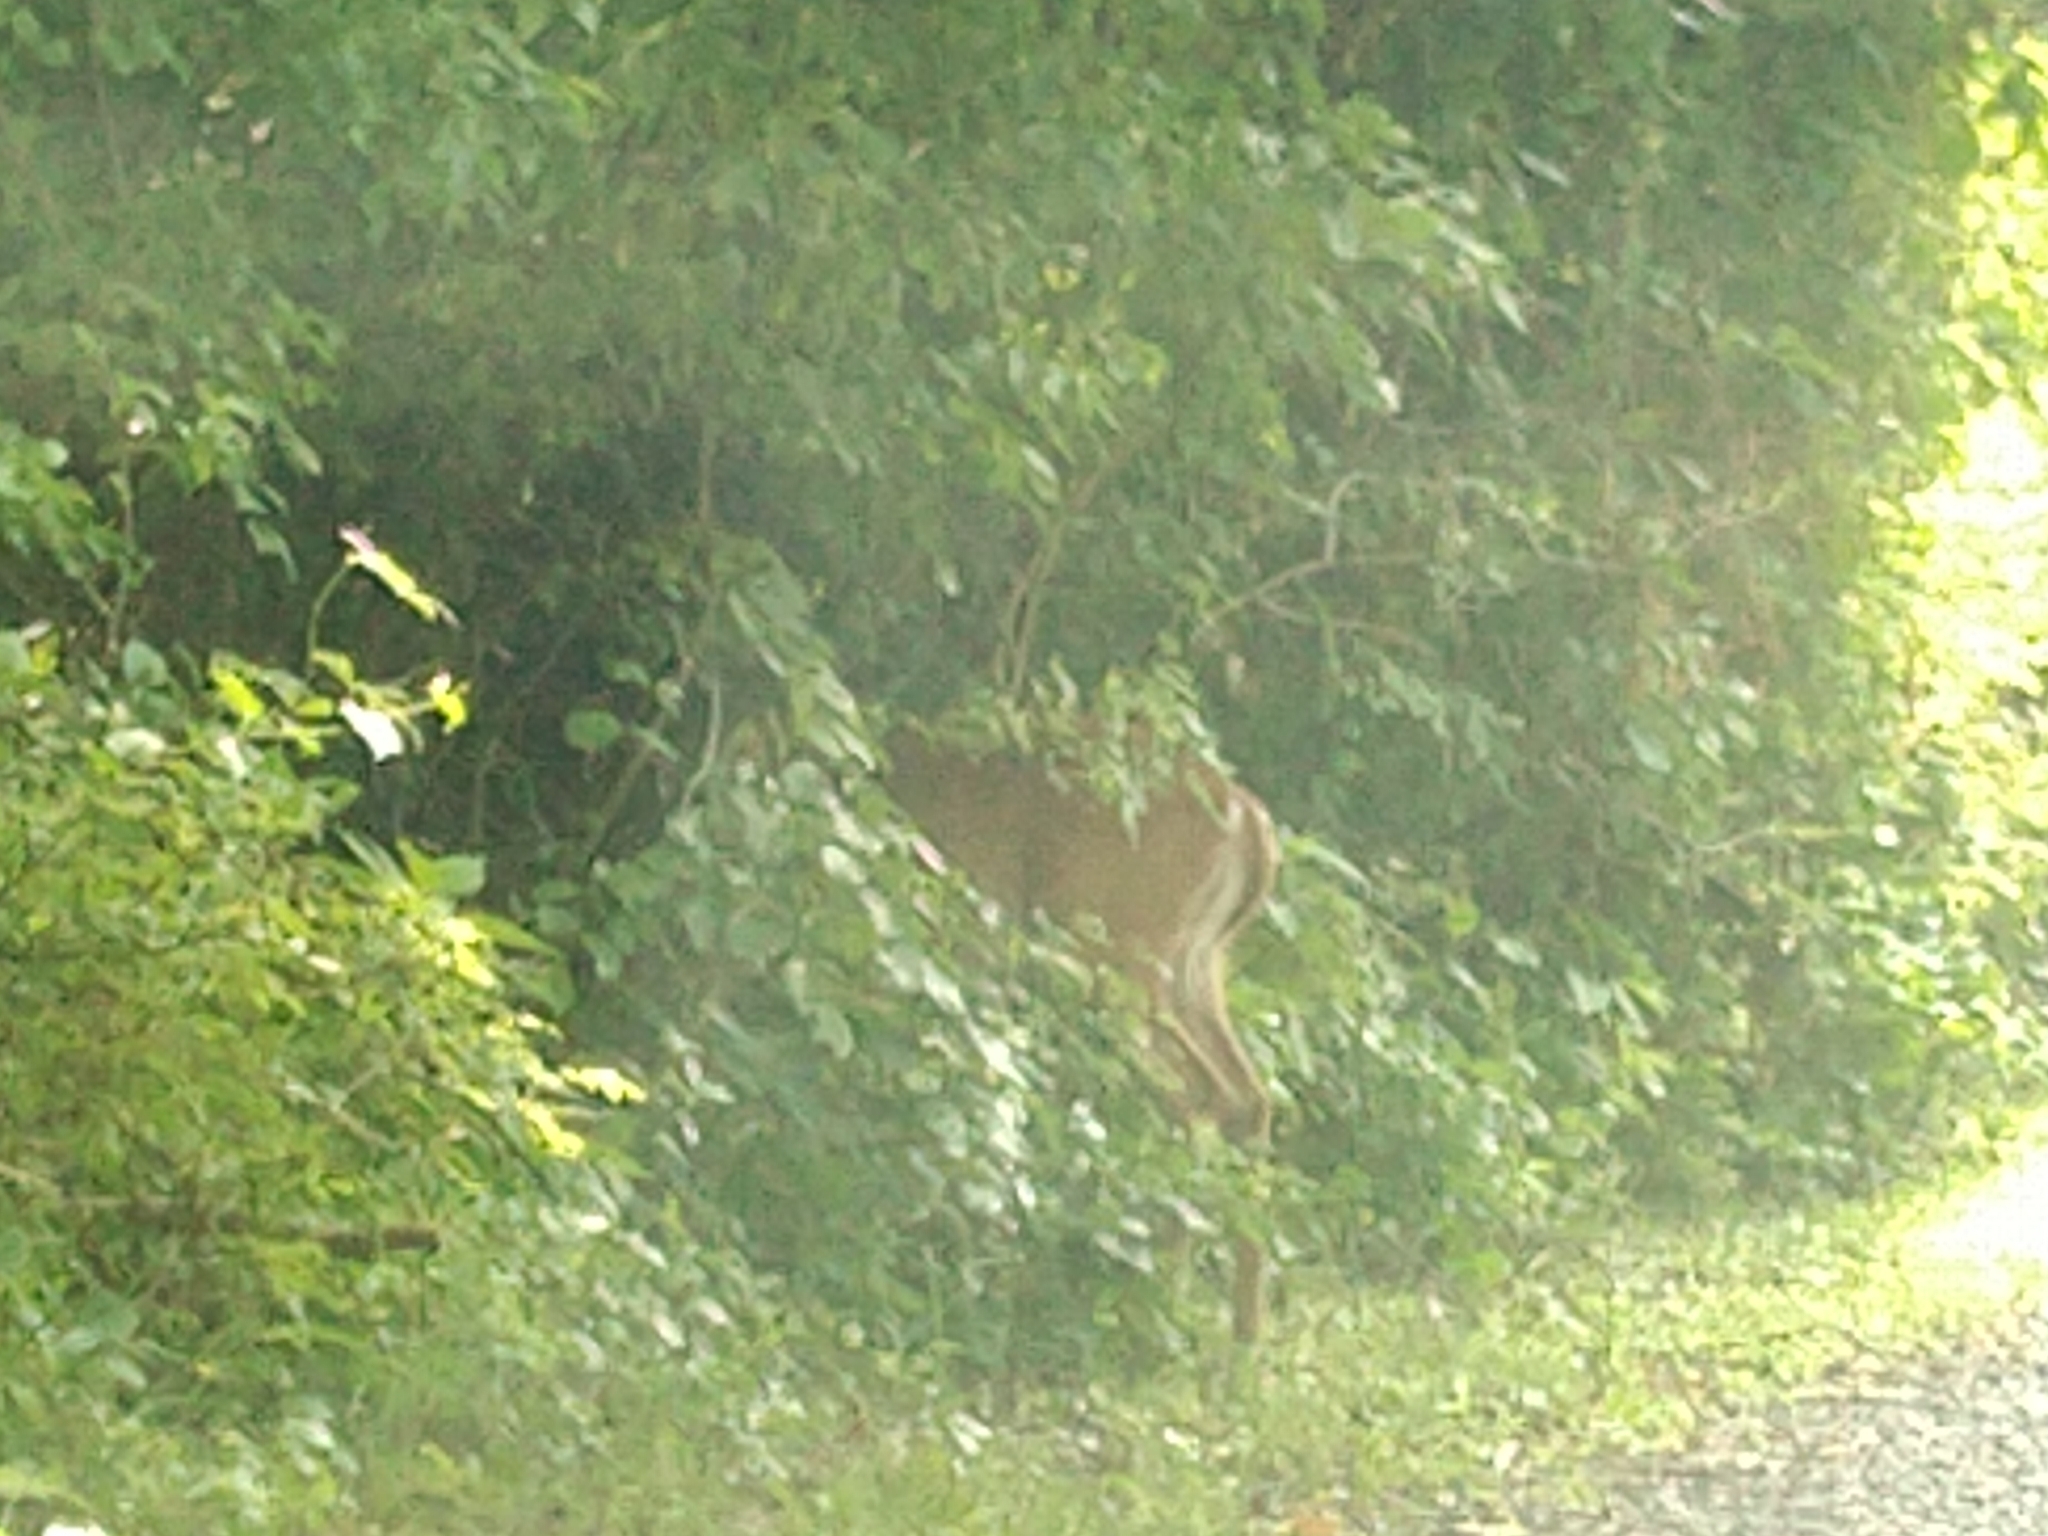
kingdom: Animalia
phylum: Chordata
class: Mammalia
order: Artiodactyla
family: Cervidae
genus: Odocoileus
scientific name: Odocoileus virginianus
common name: White-tailed deer
